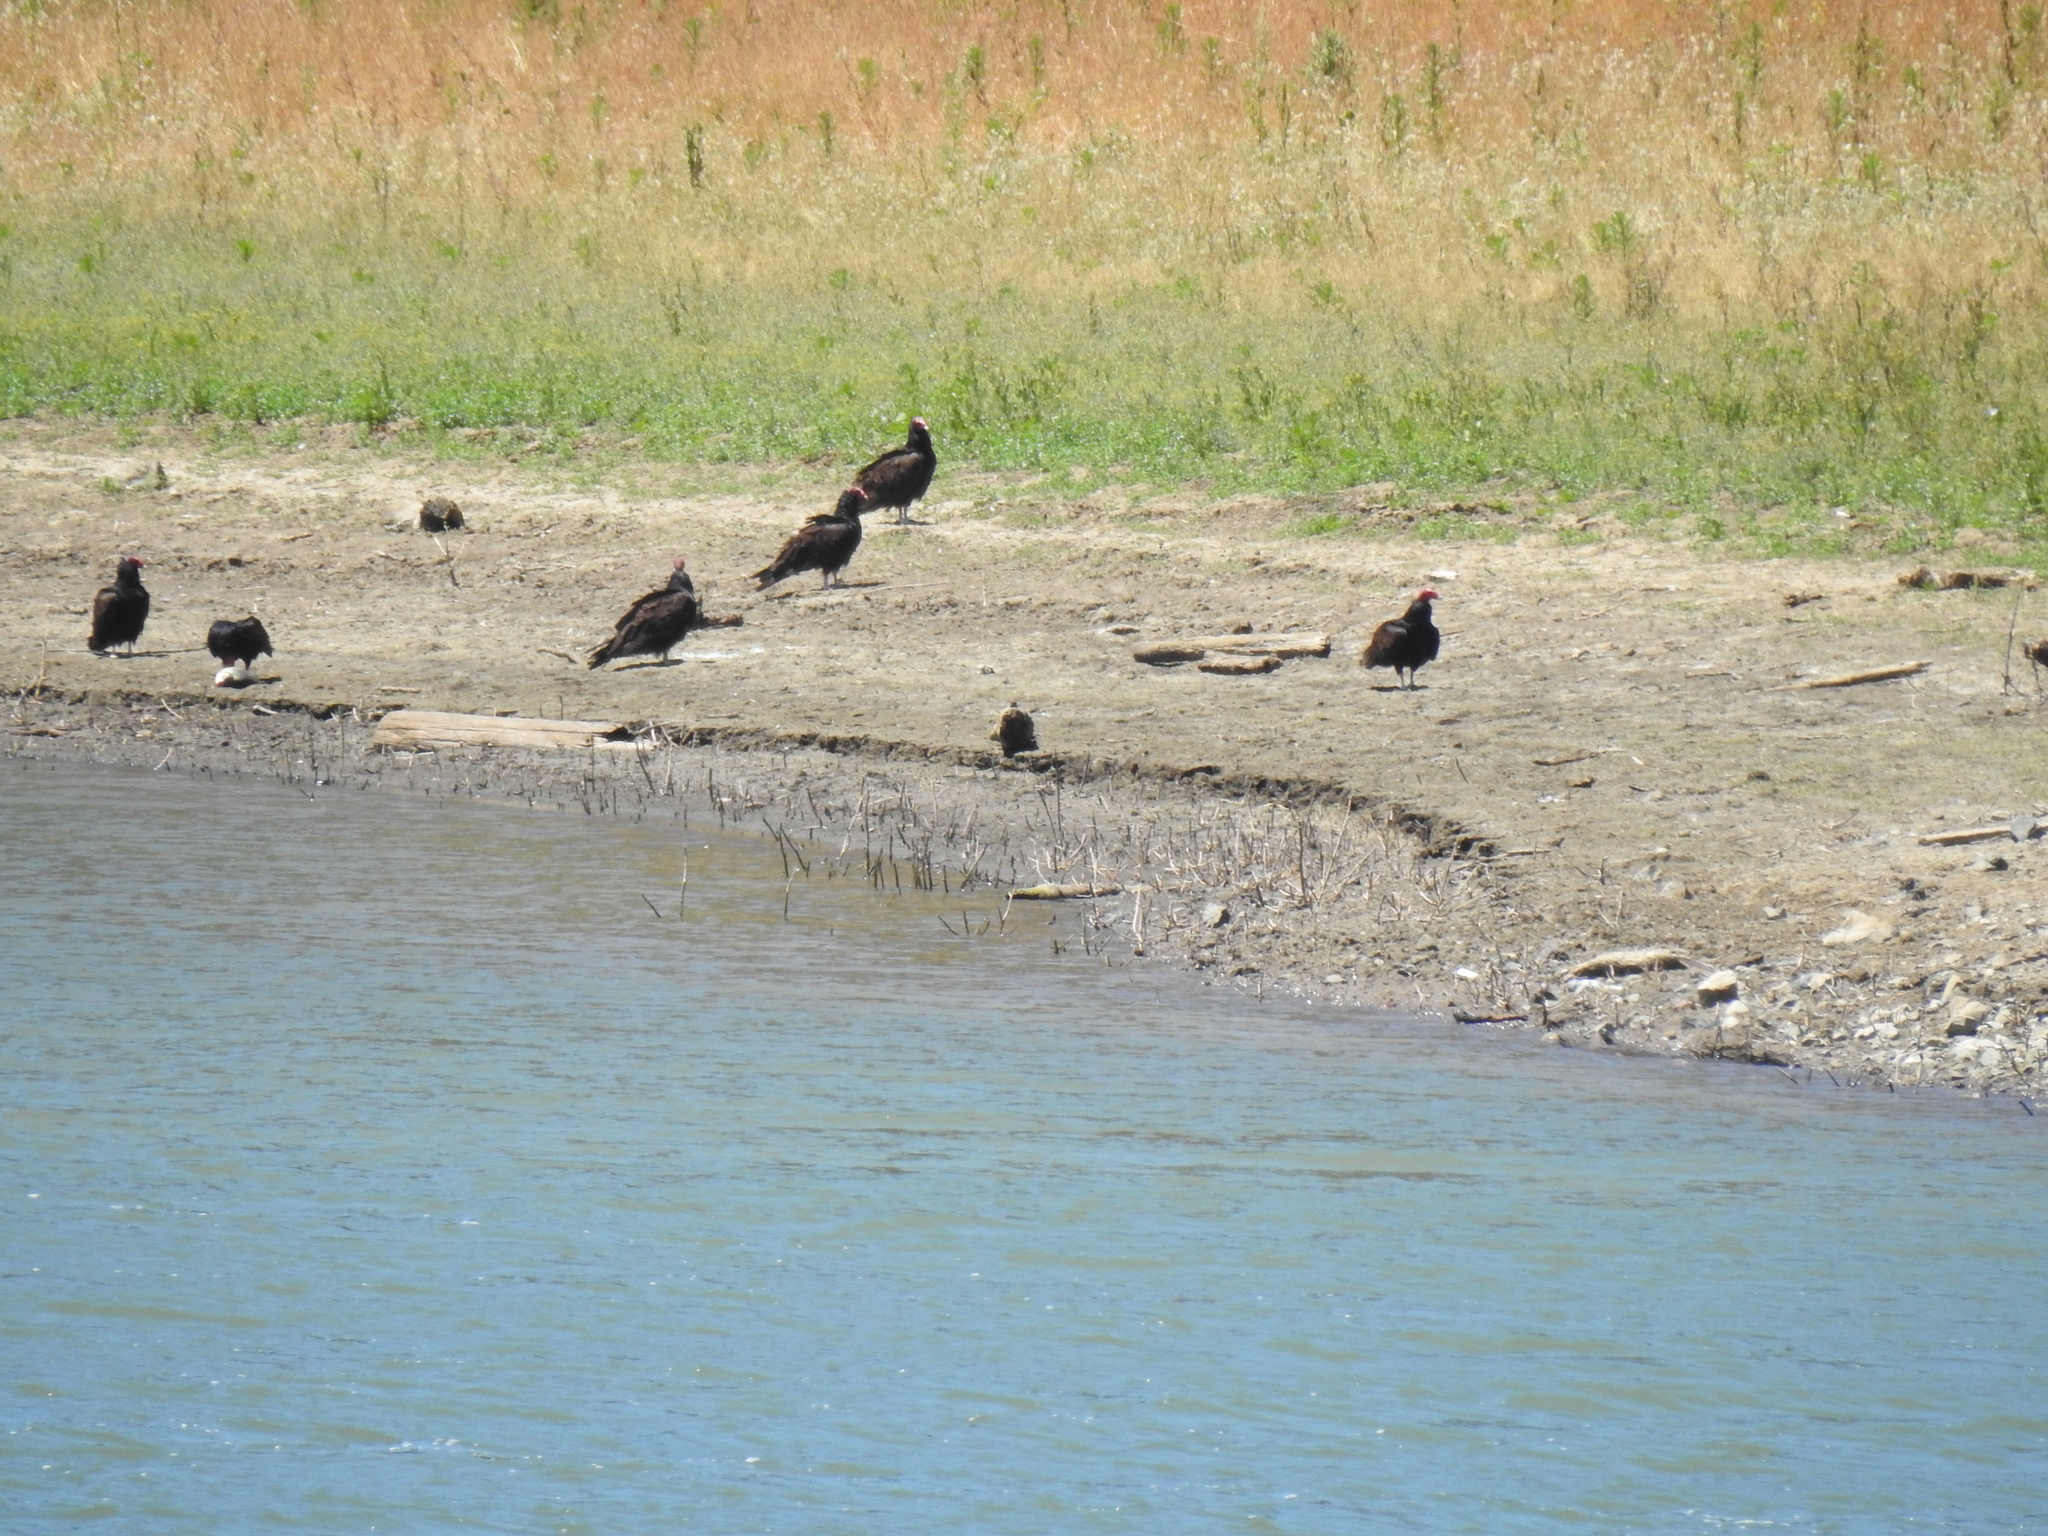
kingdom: Animalia
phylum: Chordata
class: Aves
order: Accipitriformes
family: Cathartidae
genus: Cathartes
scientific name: Cathartes aura
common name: Turkey vulture
